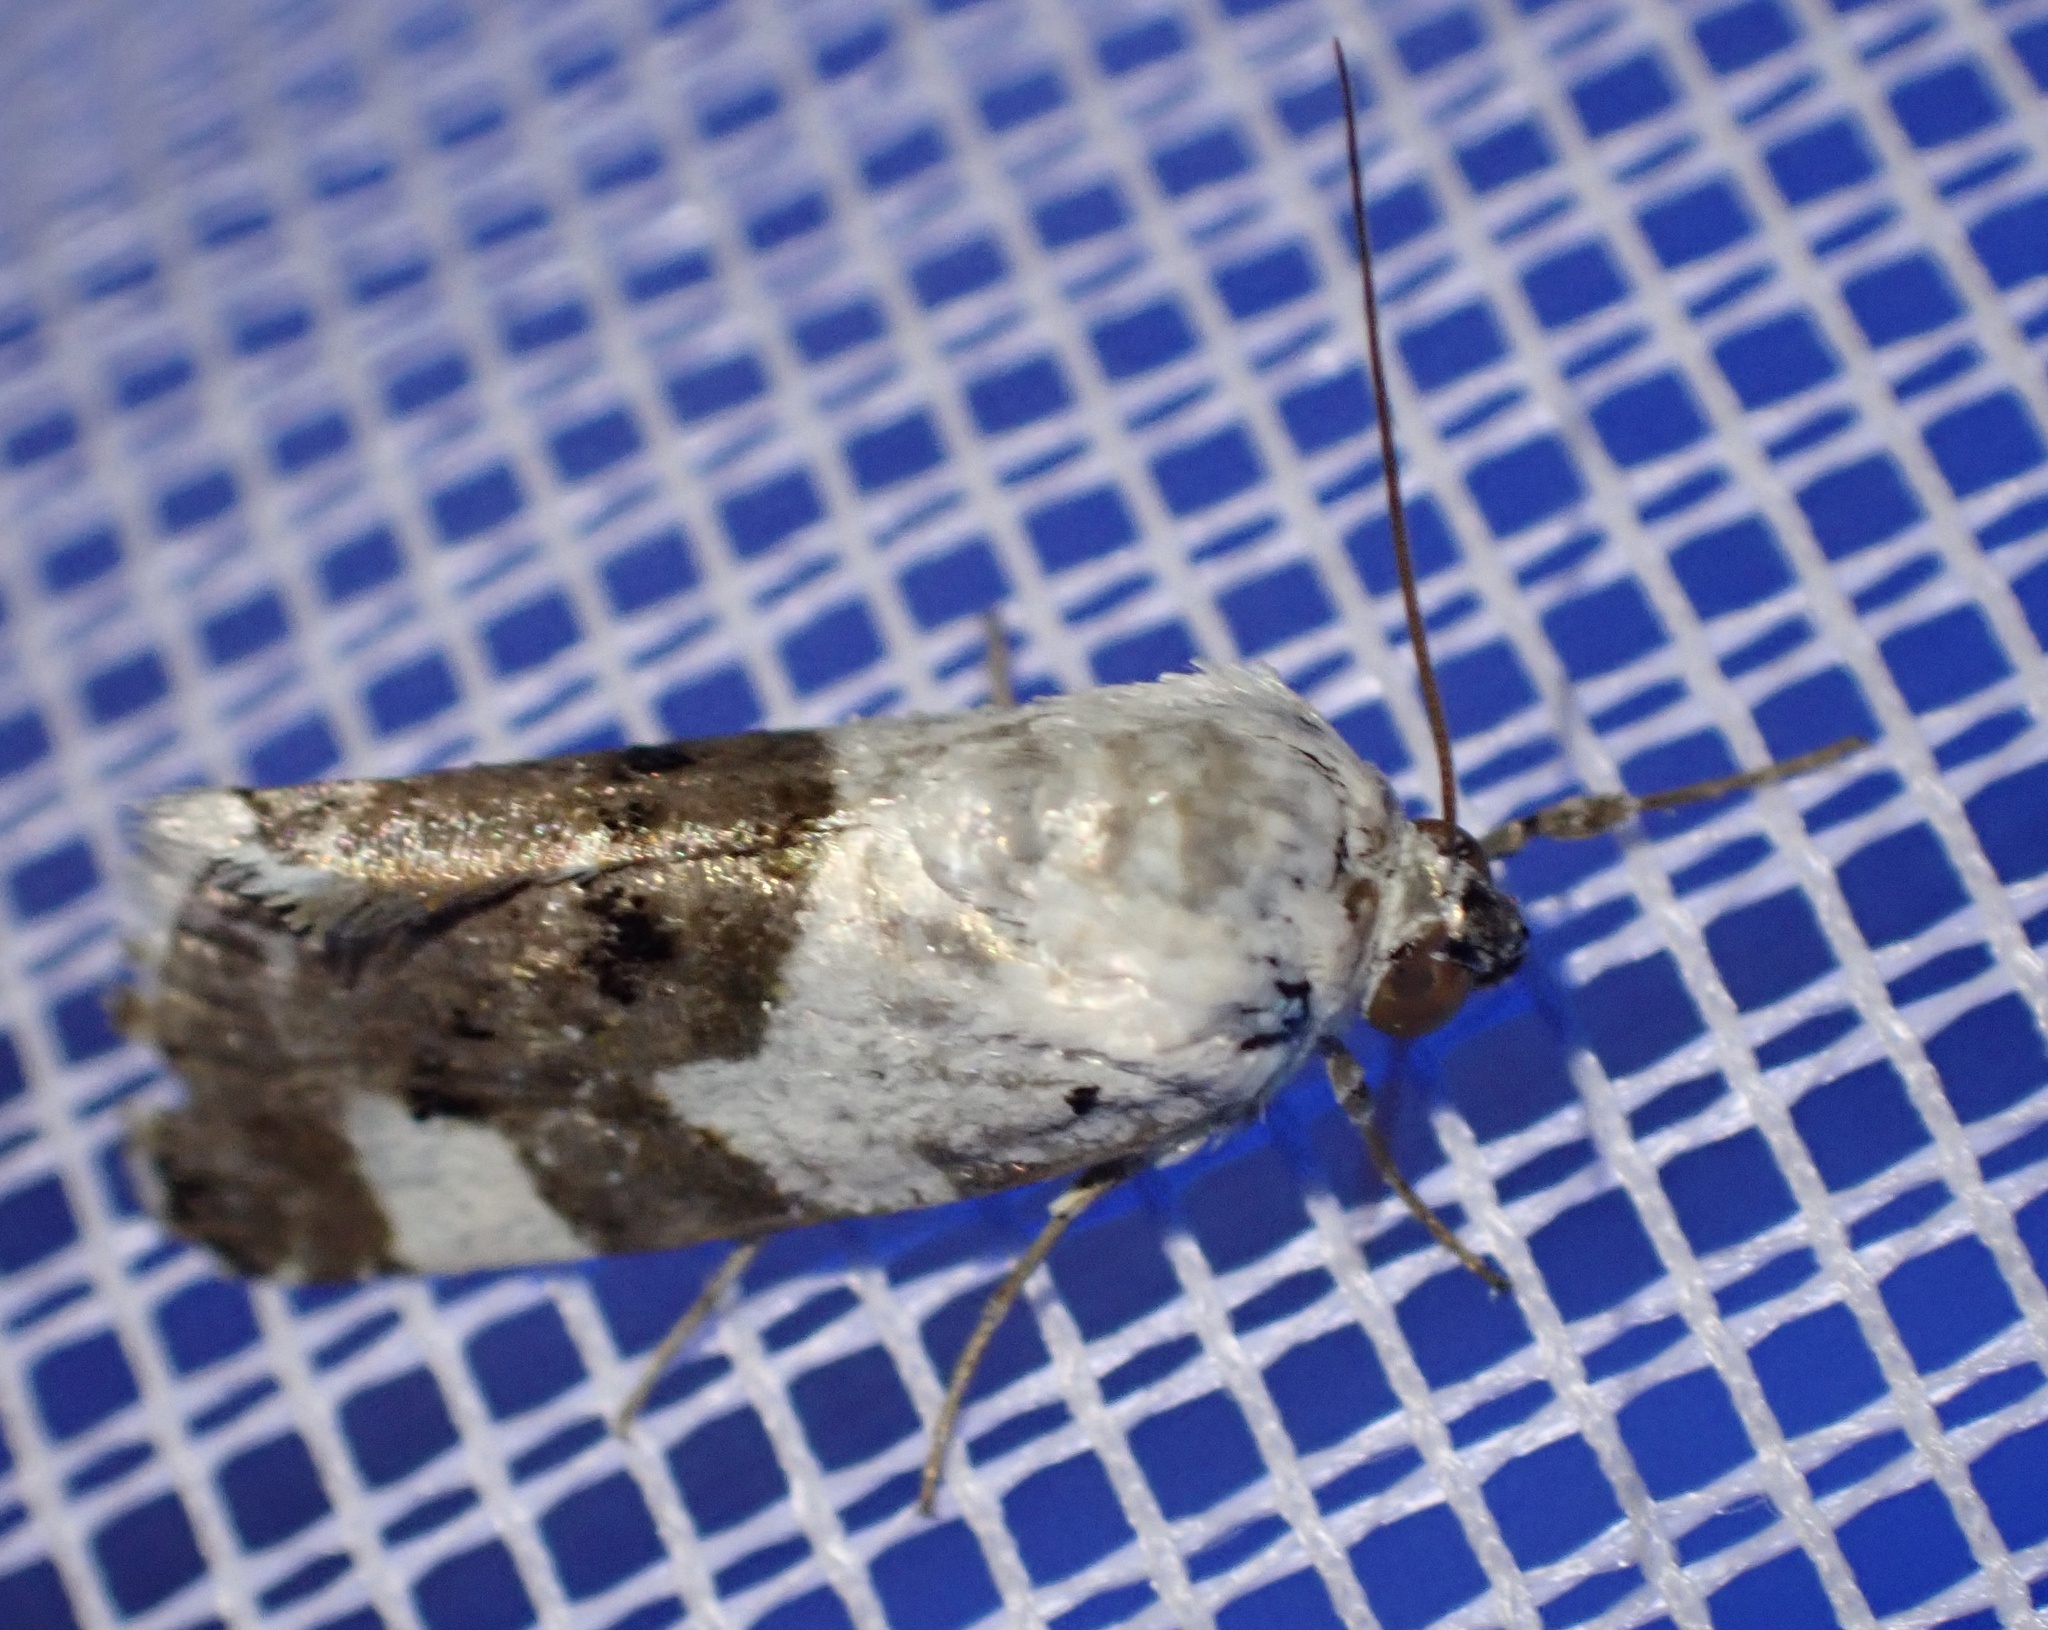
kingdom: Animalia
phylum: Arthropoda
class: Insecta
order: Lepidoptera
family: Noctuidae
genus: Acontia
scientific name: Acontia lucida
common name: Pale shoulder
